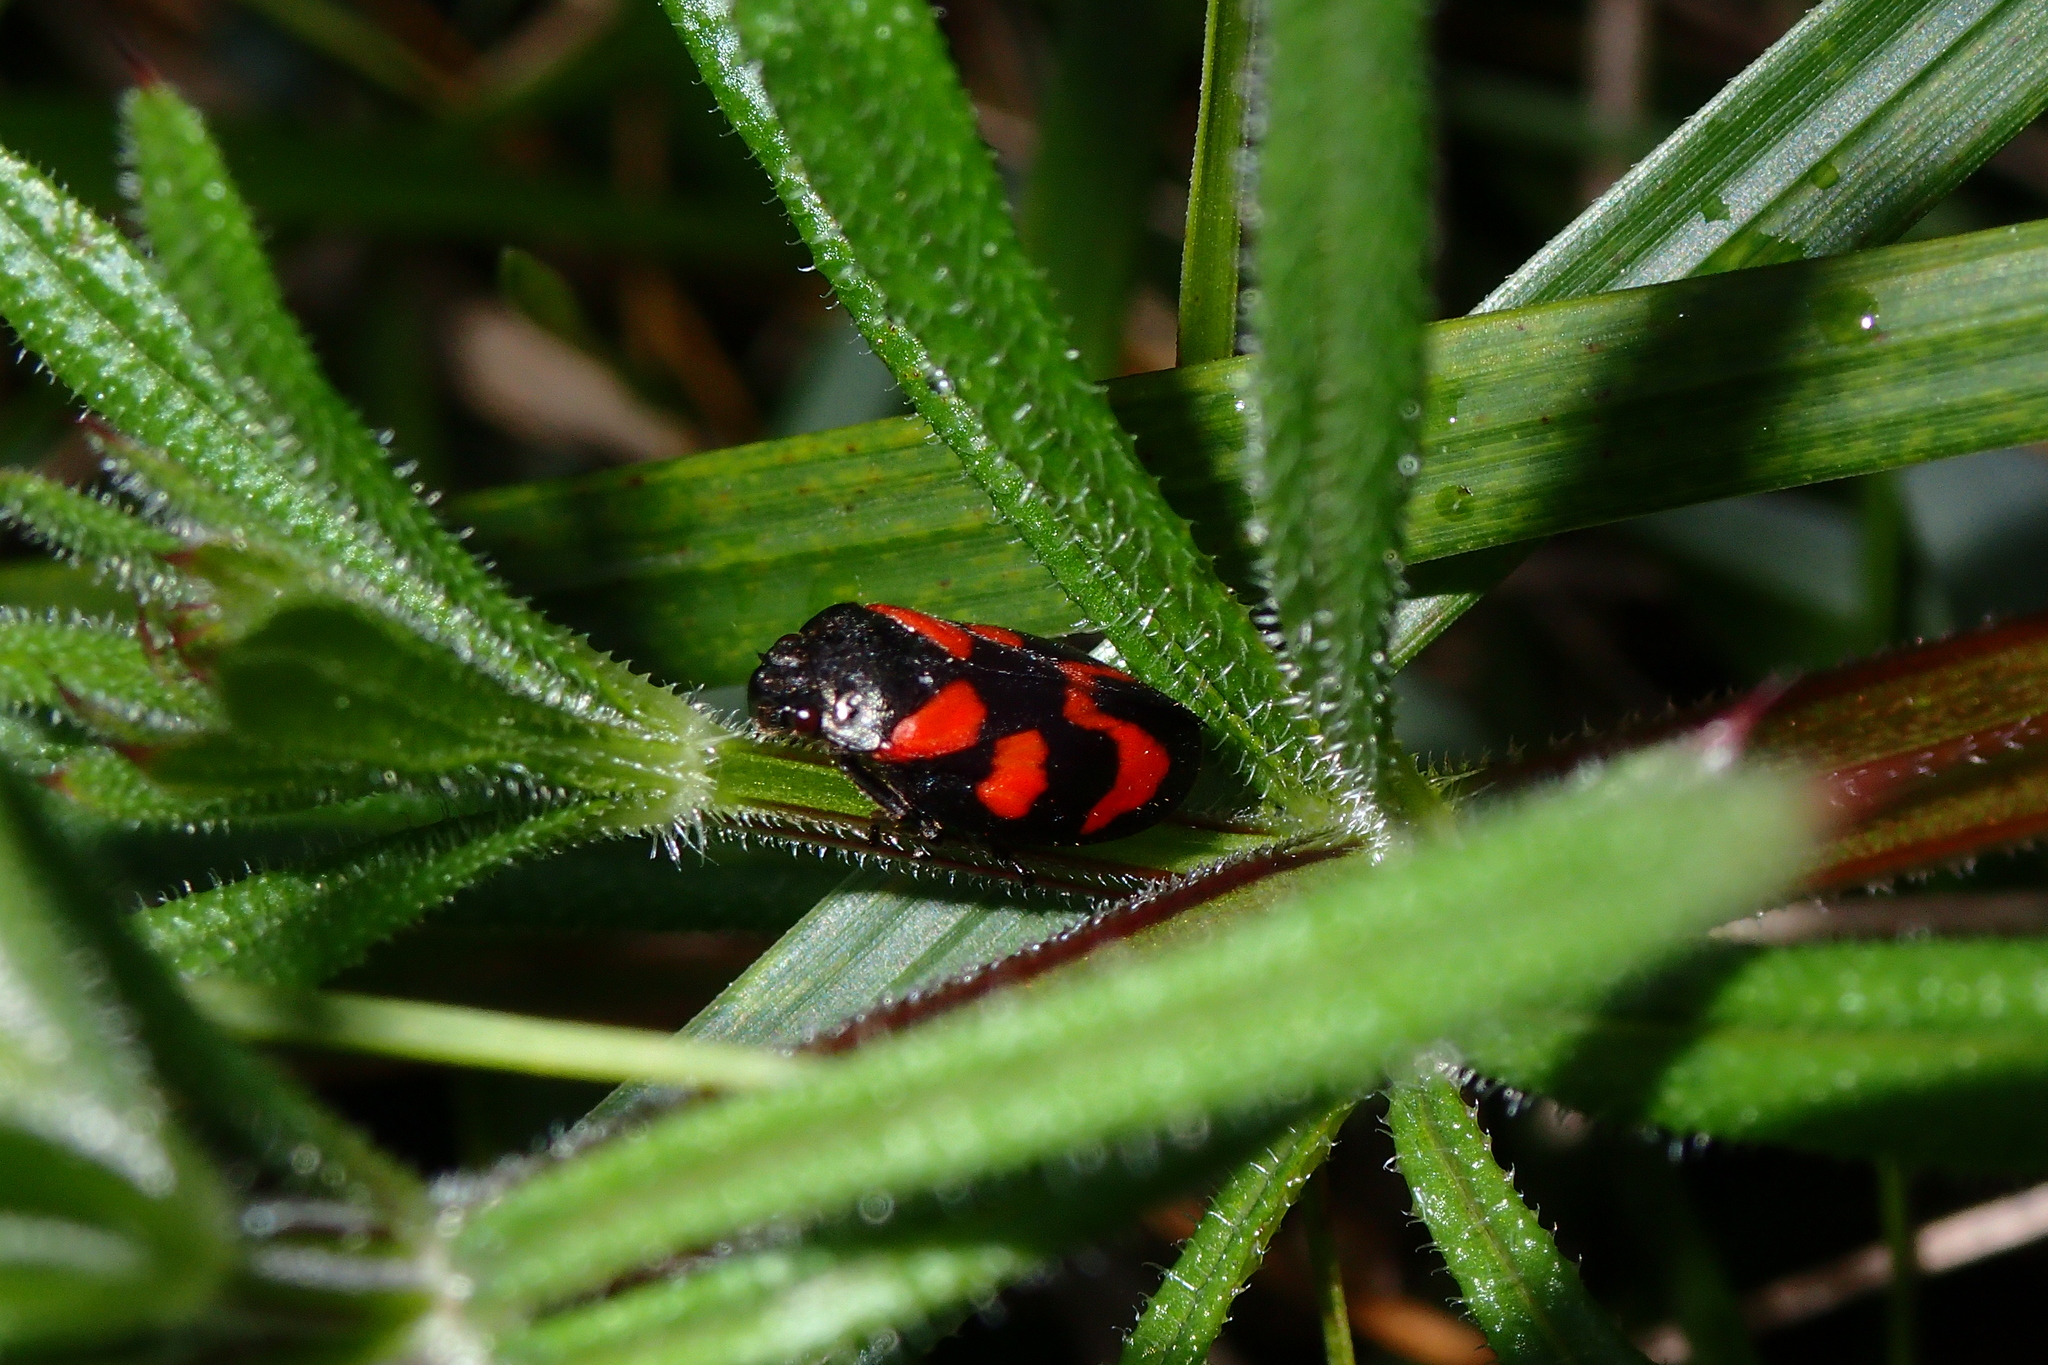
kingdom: Animalia
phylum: Arthropoda
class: Insecta
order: Hemiptera
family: Cercopidae
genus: Cercopis
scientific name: Cercopis vulnerata
